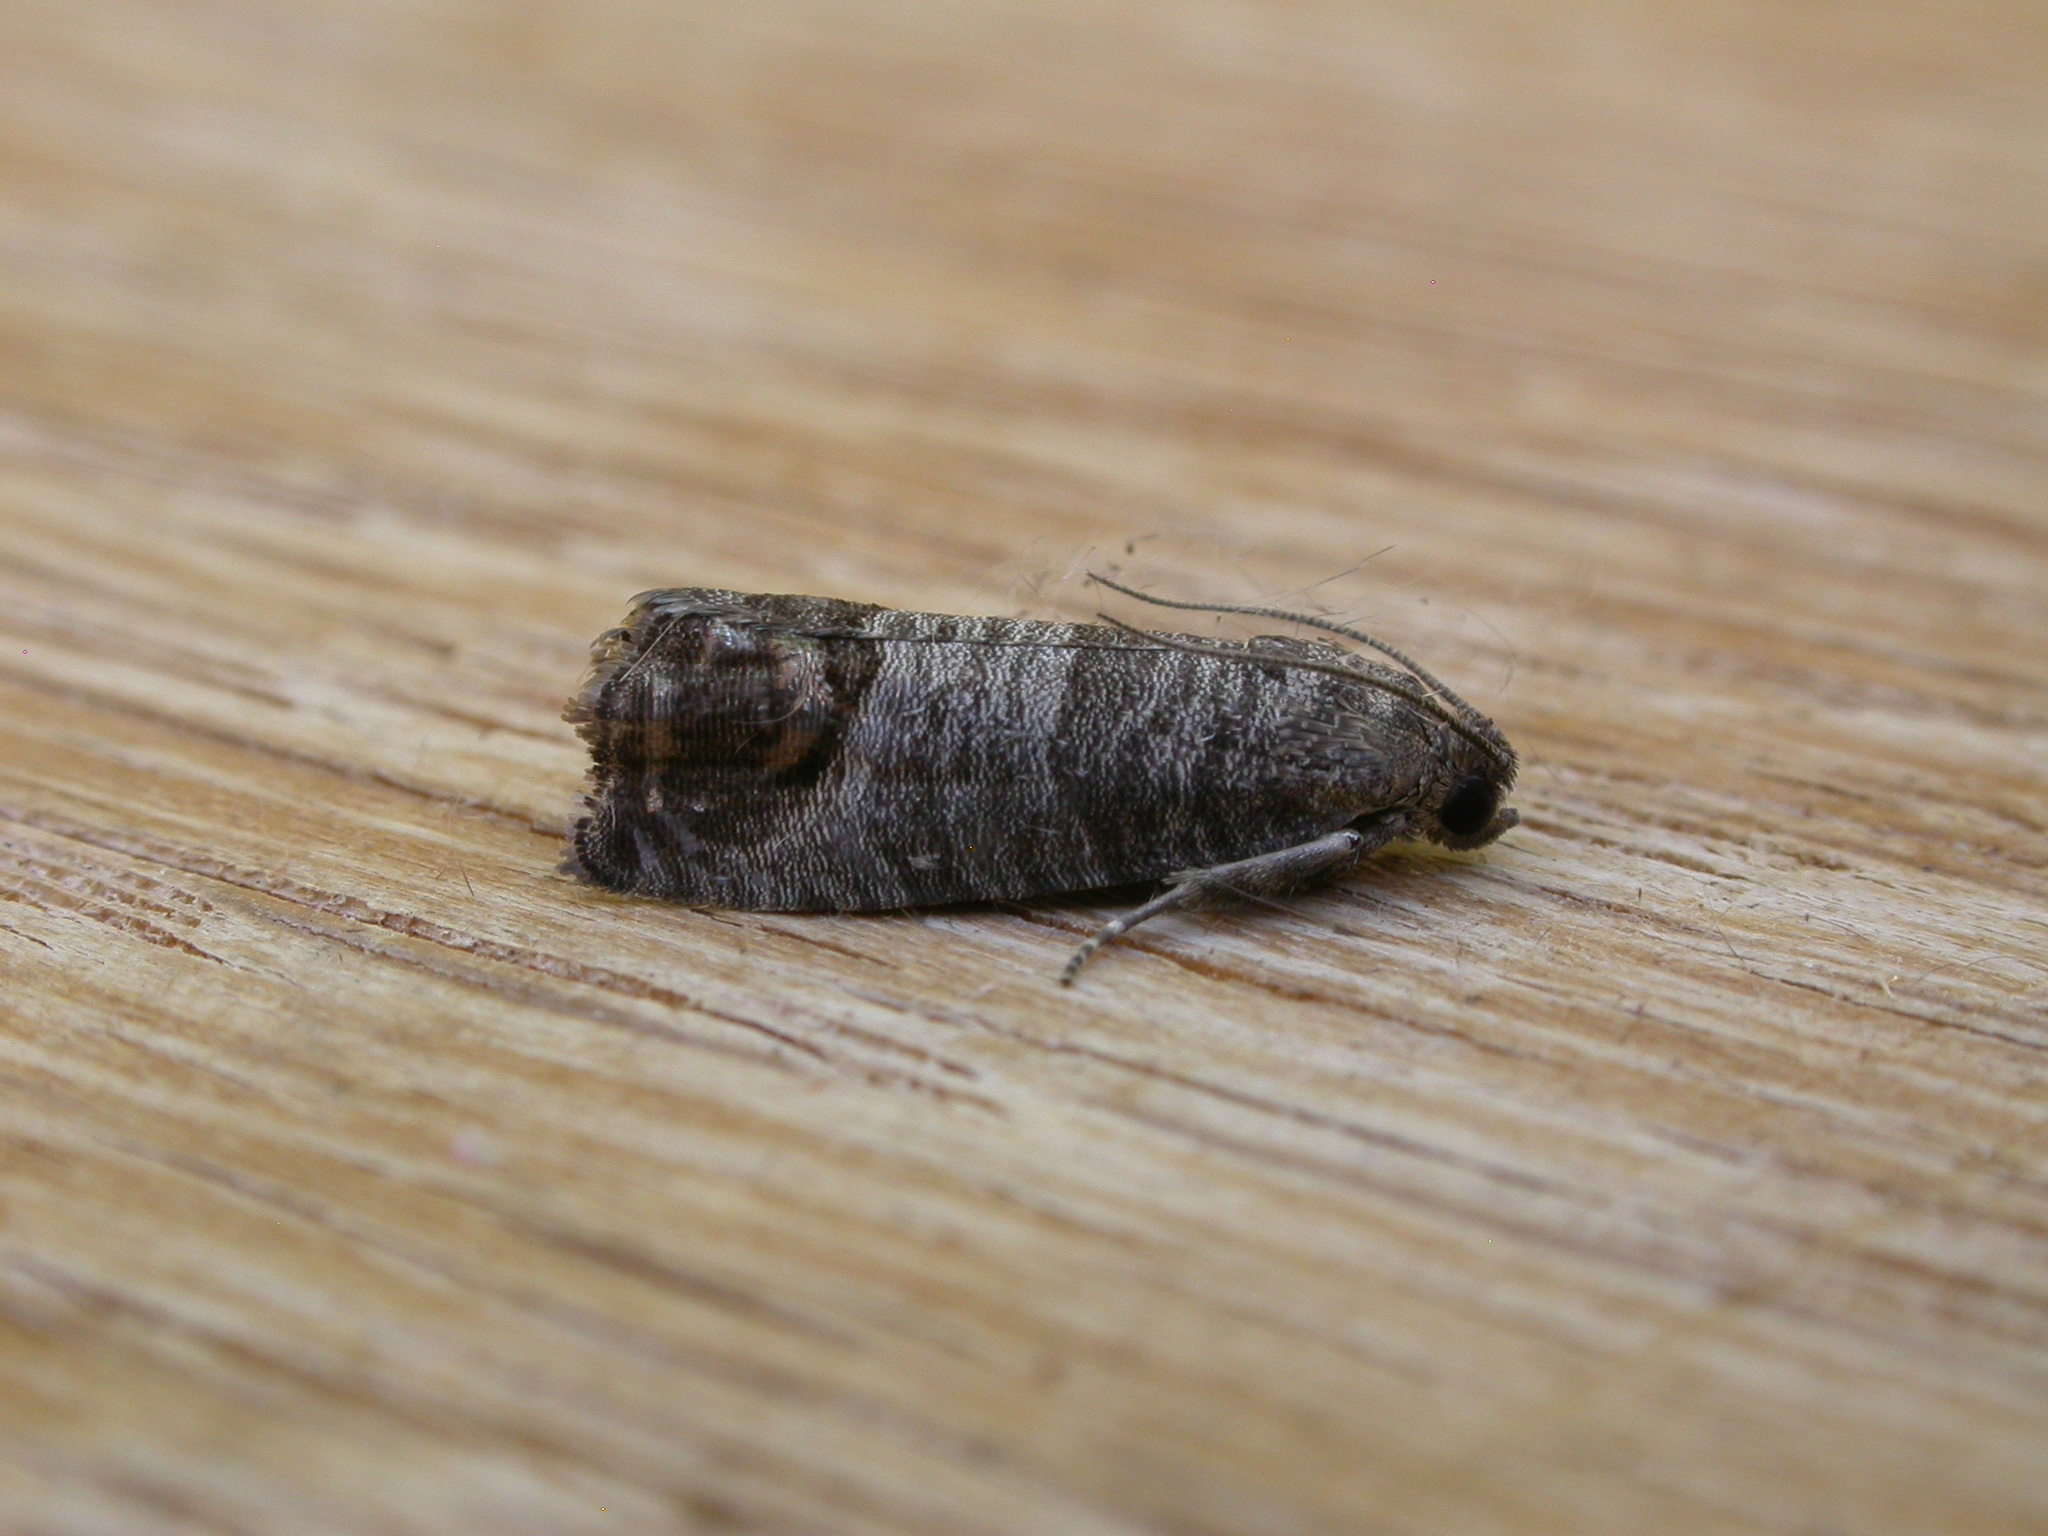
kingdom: Animalia
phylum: Arthropoda
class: Insecta
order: Lepidoptera
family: Tortricidae
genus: Cydia
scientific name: Cydia pomonella
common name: Codling moth
